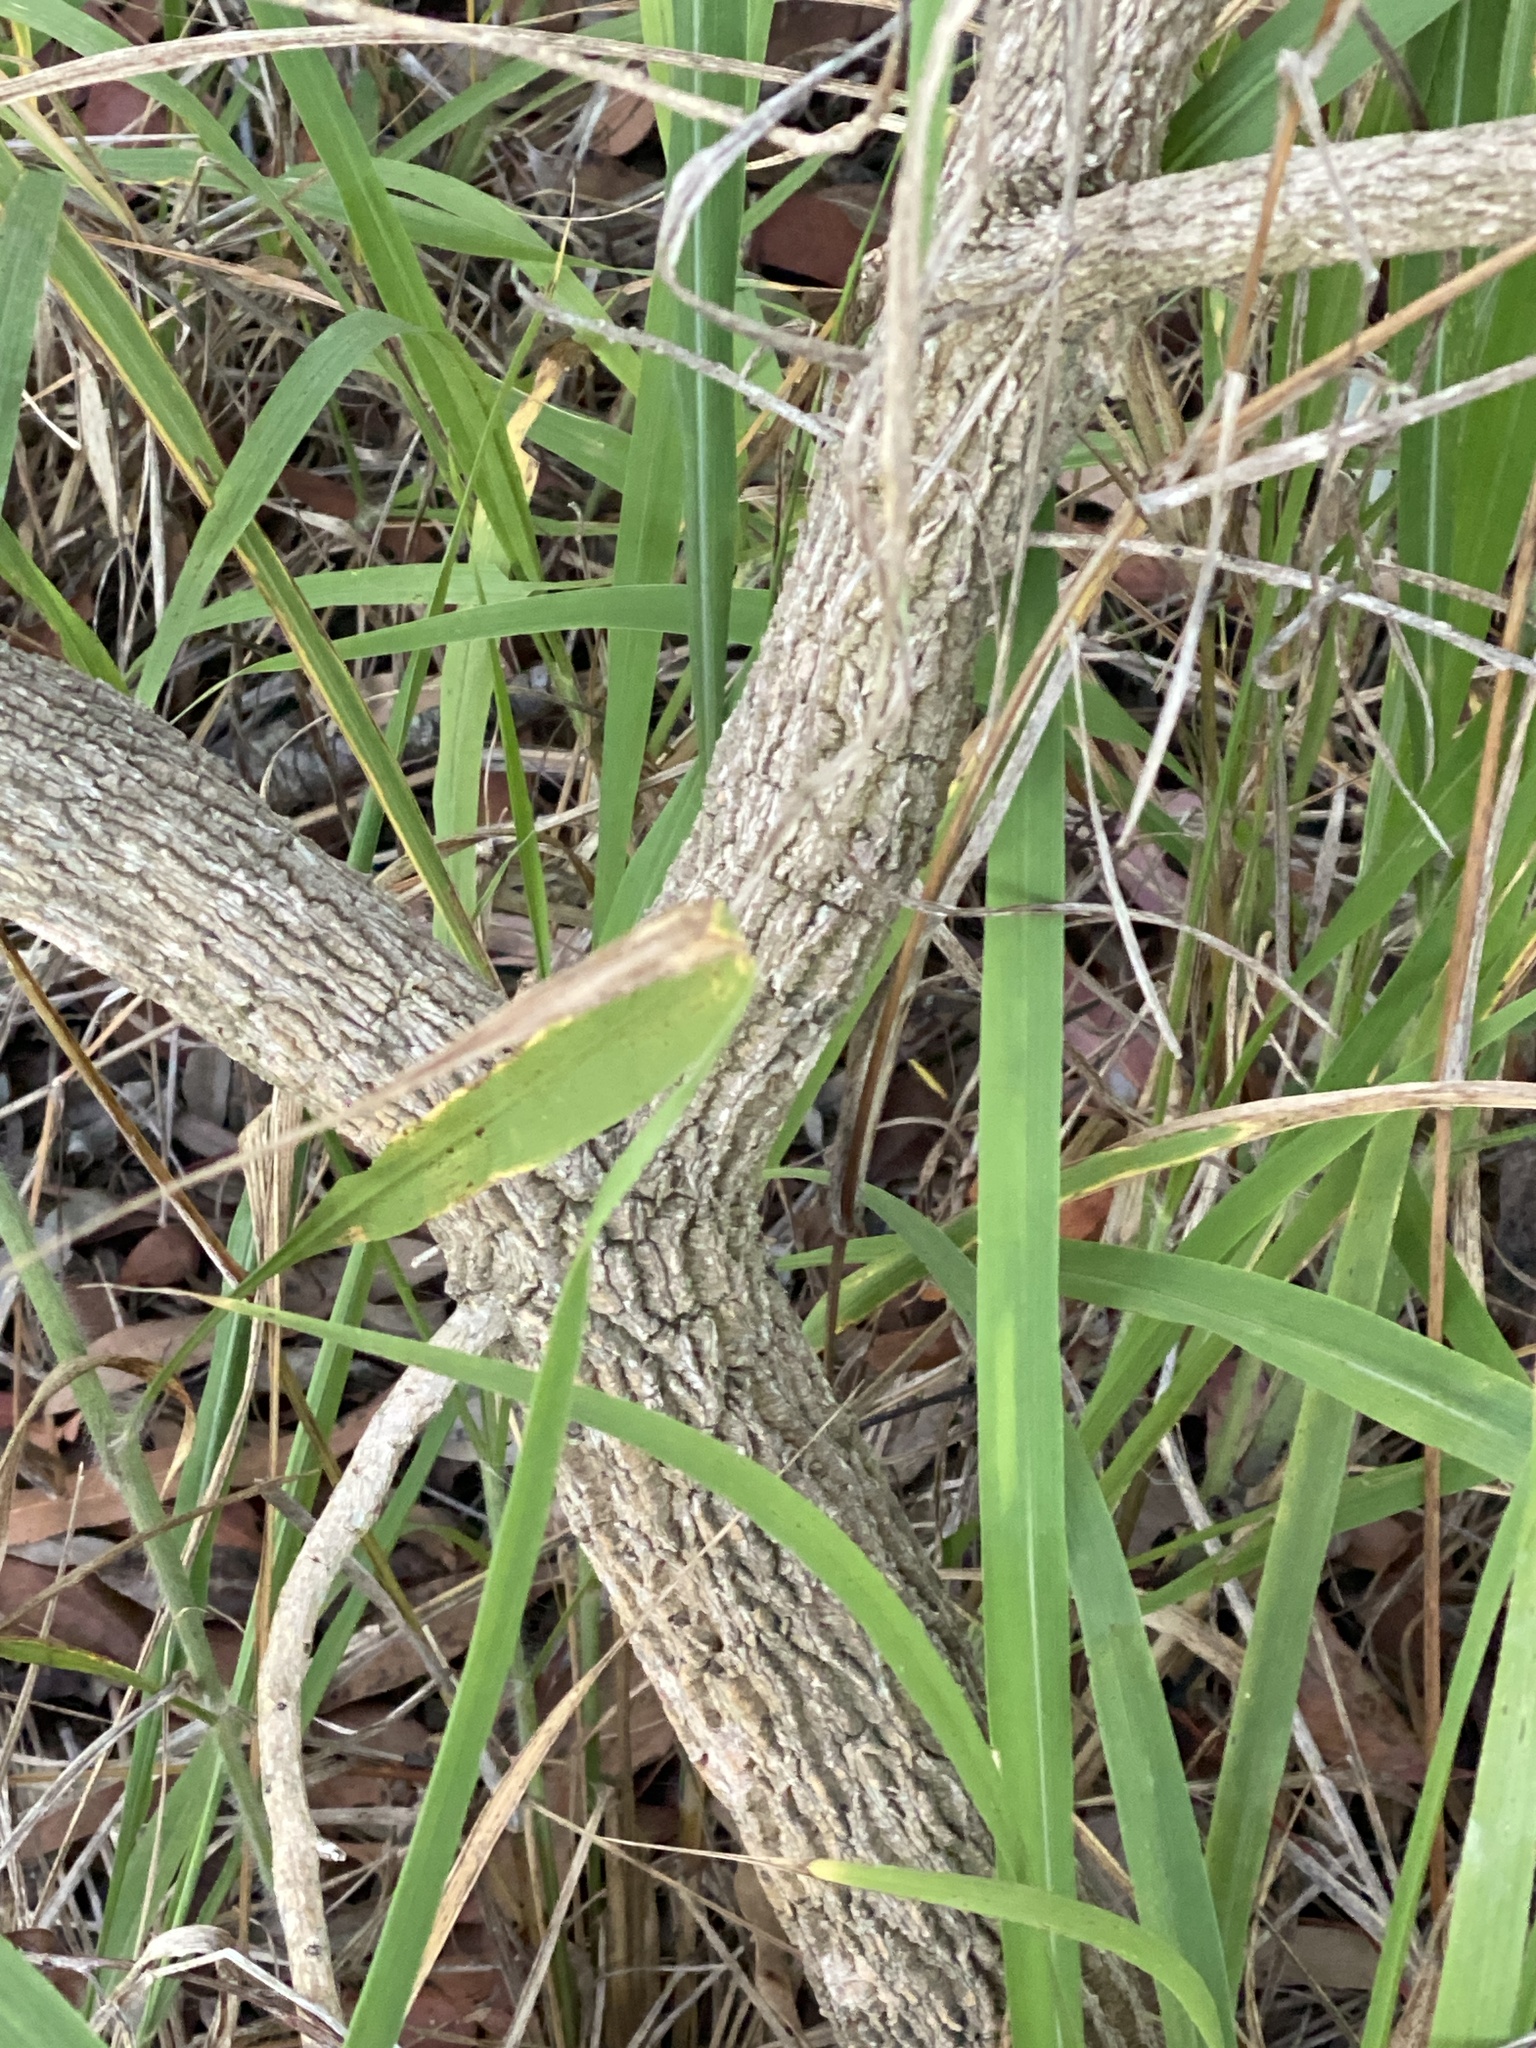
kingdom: Plantae
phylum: Tracheophyta
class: Magnoliopsida
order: Solanales
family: Solanaceae
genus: Duboisia
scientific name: Duboisia myoporoides
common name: Corkwoodtree
